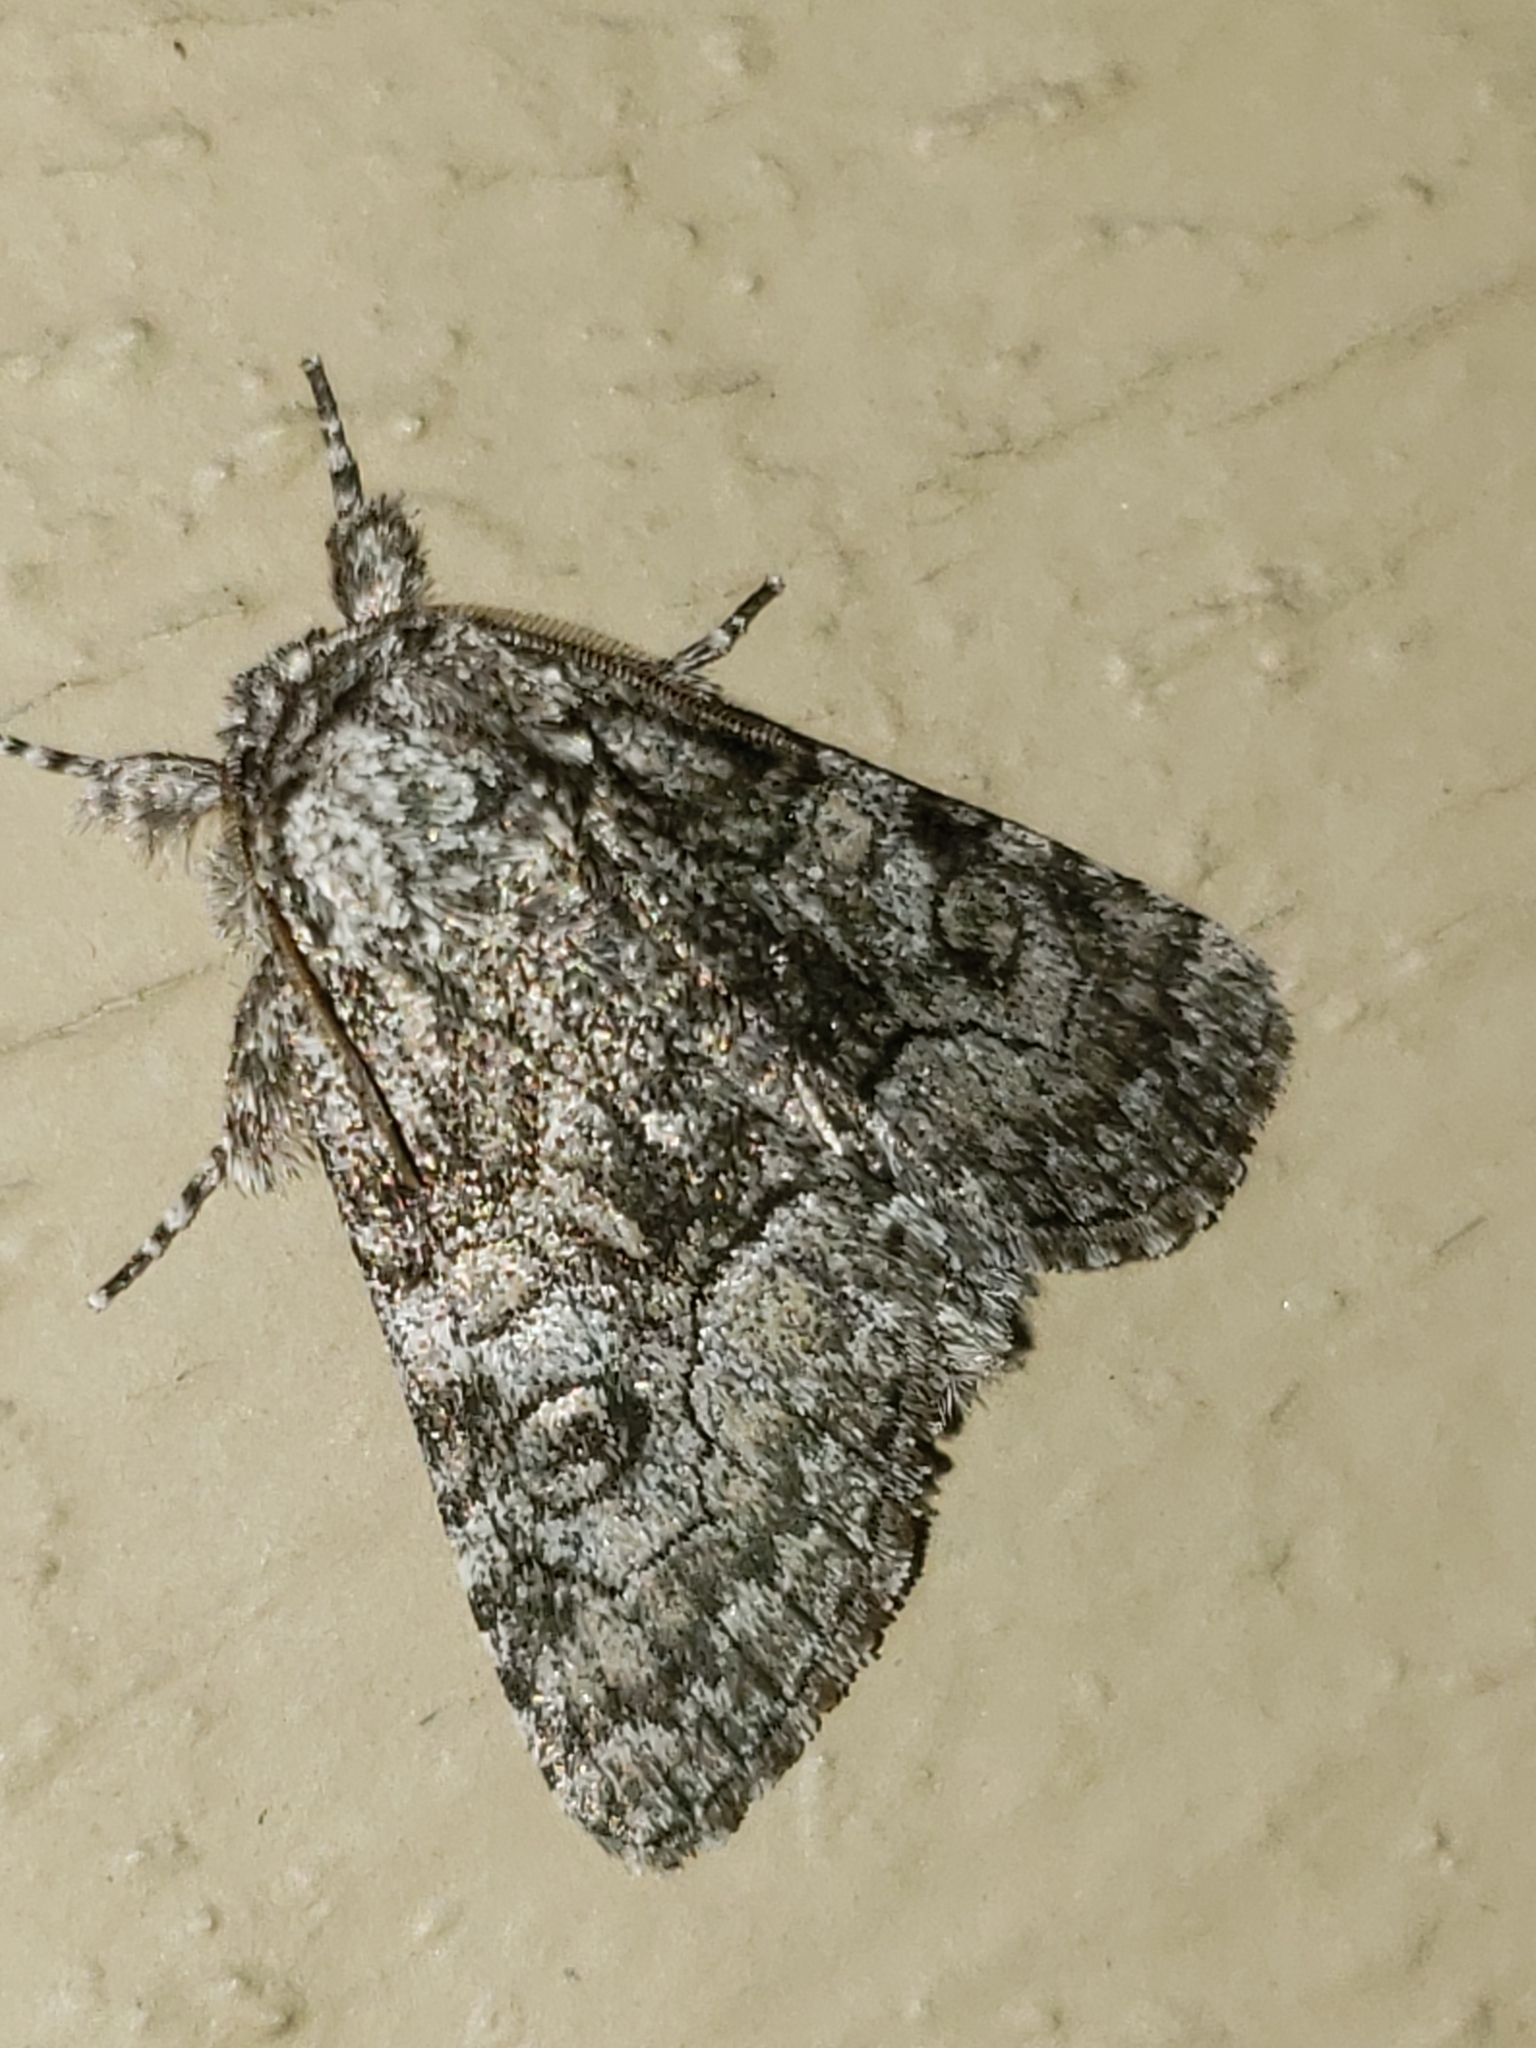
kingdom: Animalia
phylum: Arthropoda
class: Insecta
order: Lepidoptera
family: Noctuidae
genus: Raphia
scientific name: Raphia frater
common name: Brother
